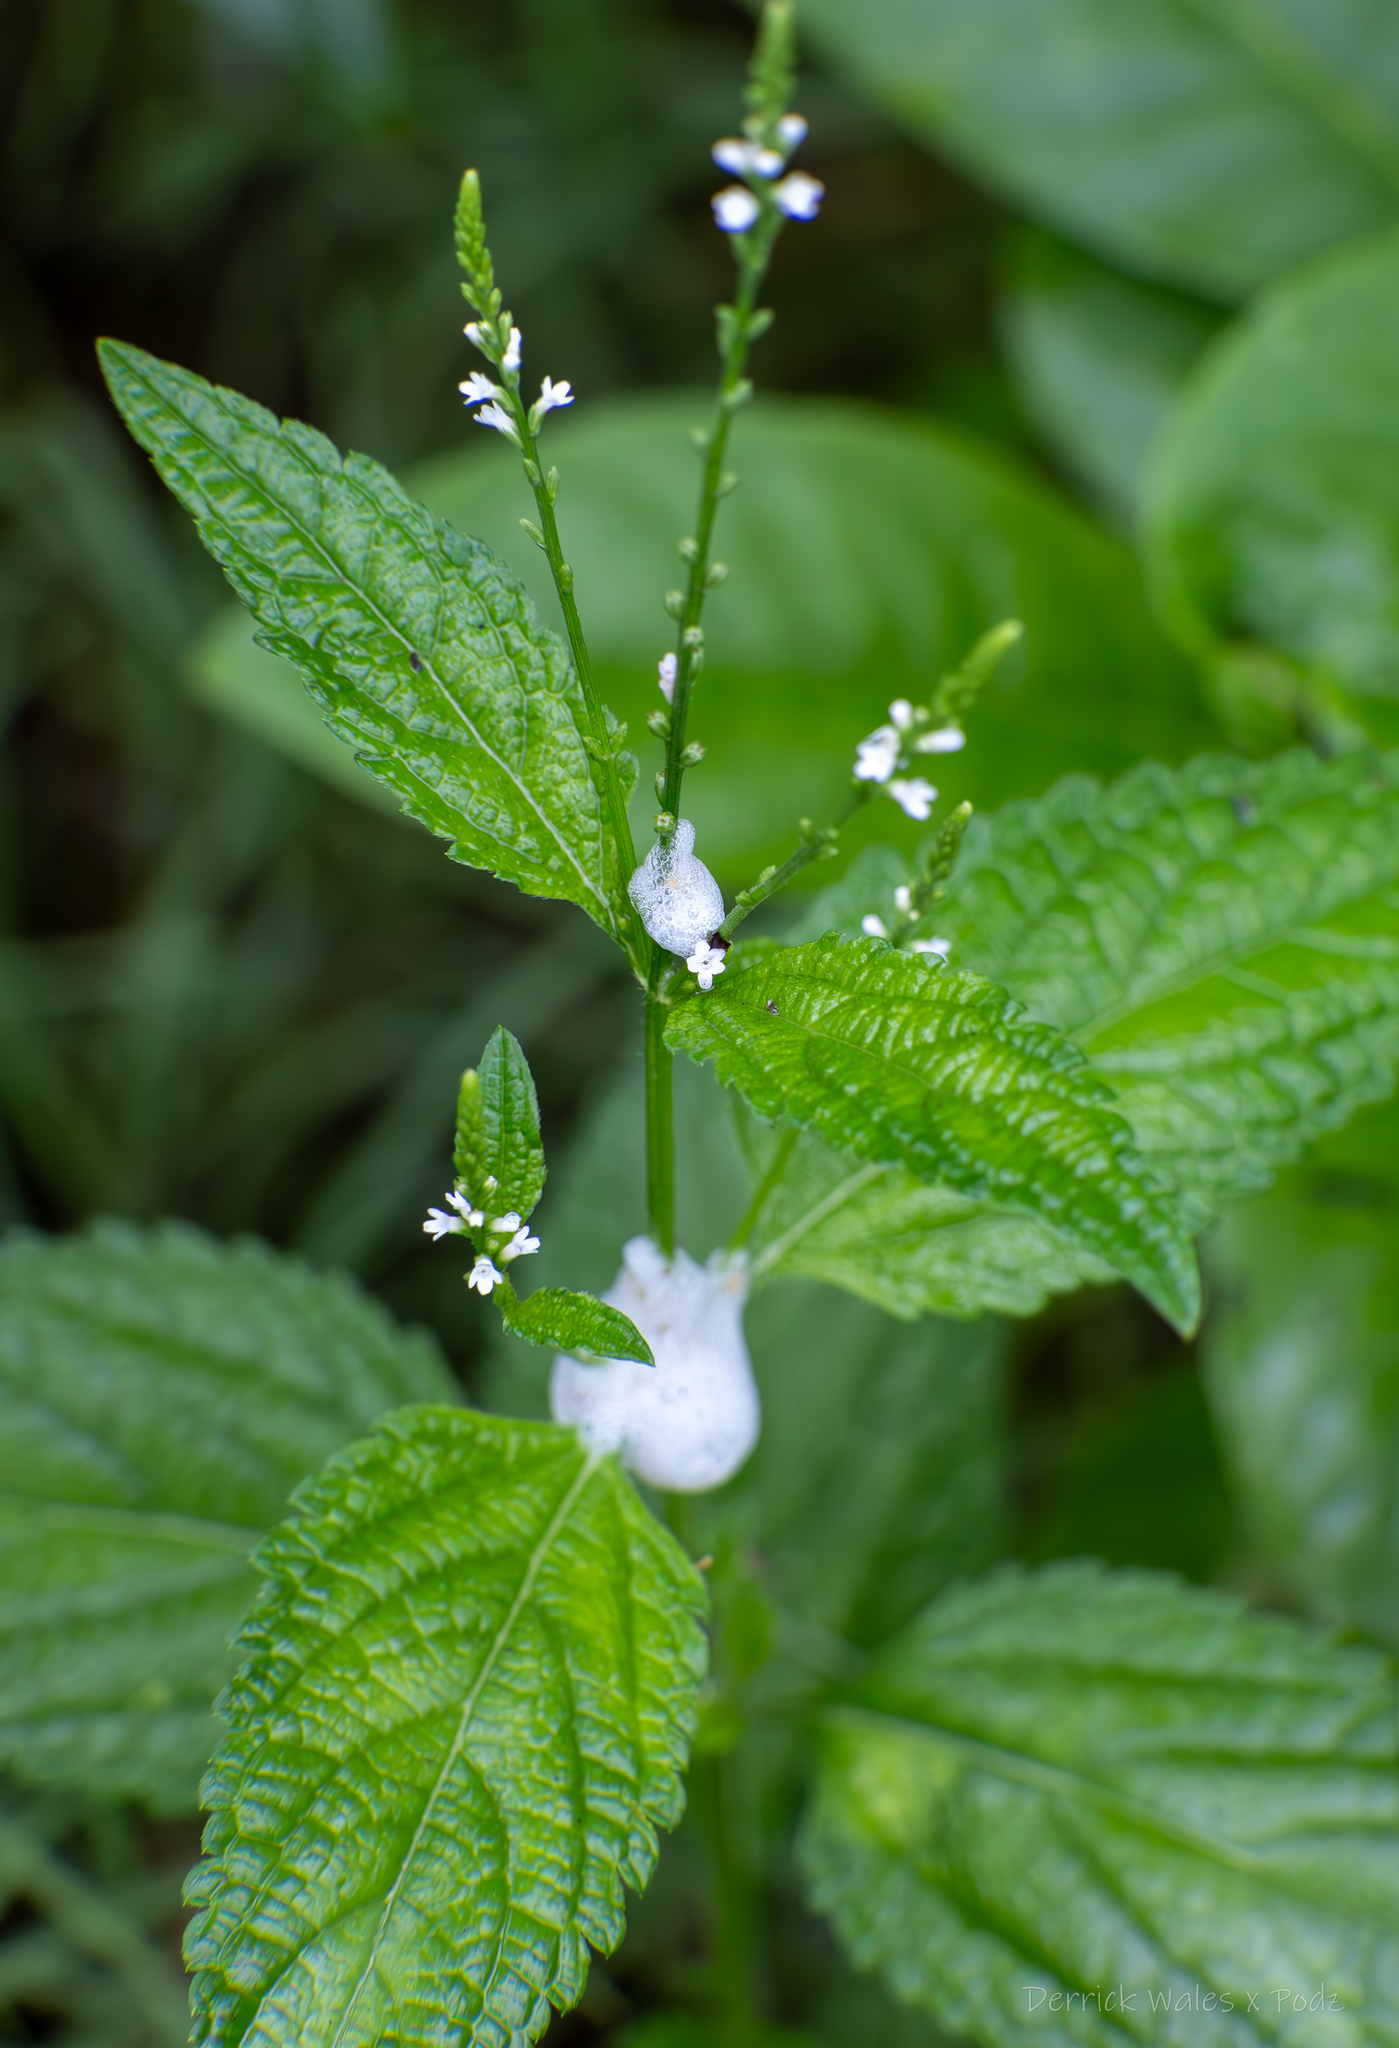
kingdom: Plantae
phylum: Tracheophyta
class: Magnoliopsida
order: Lamiales
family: Verbenaceae
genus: Verbena
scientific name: Verbena urticifolia
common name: Nettle-leaved vervain
